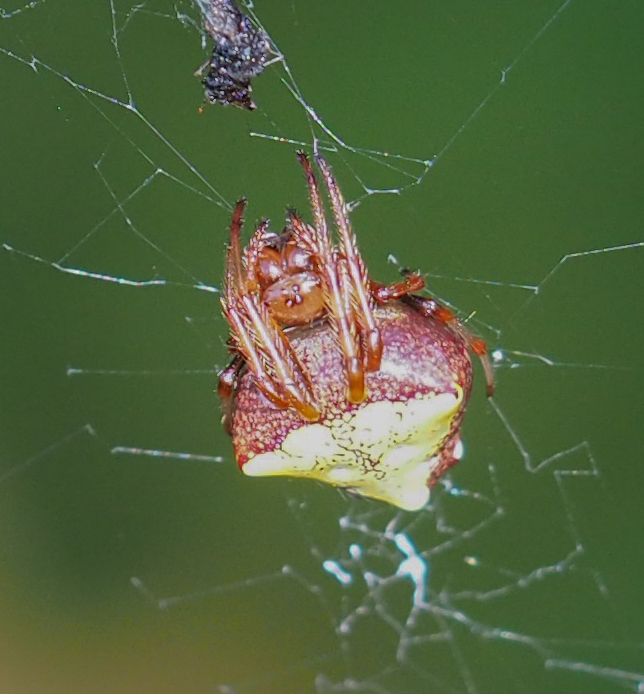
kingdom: Animalia
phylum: Arthropoda
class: Arachnida
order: Araneae
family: Araneidae
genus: Verrucosa
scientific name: Verrucosa arenata
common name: Orb weavers
